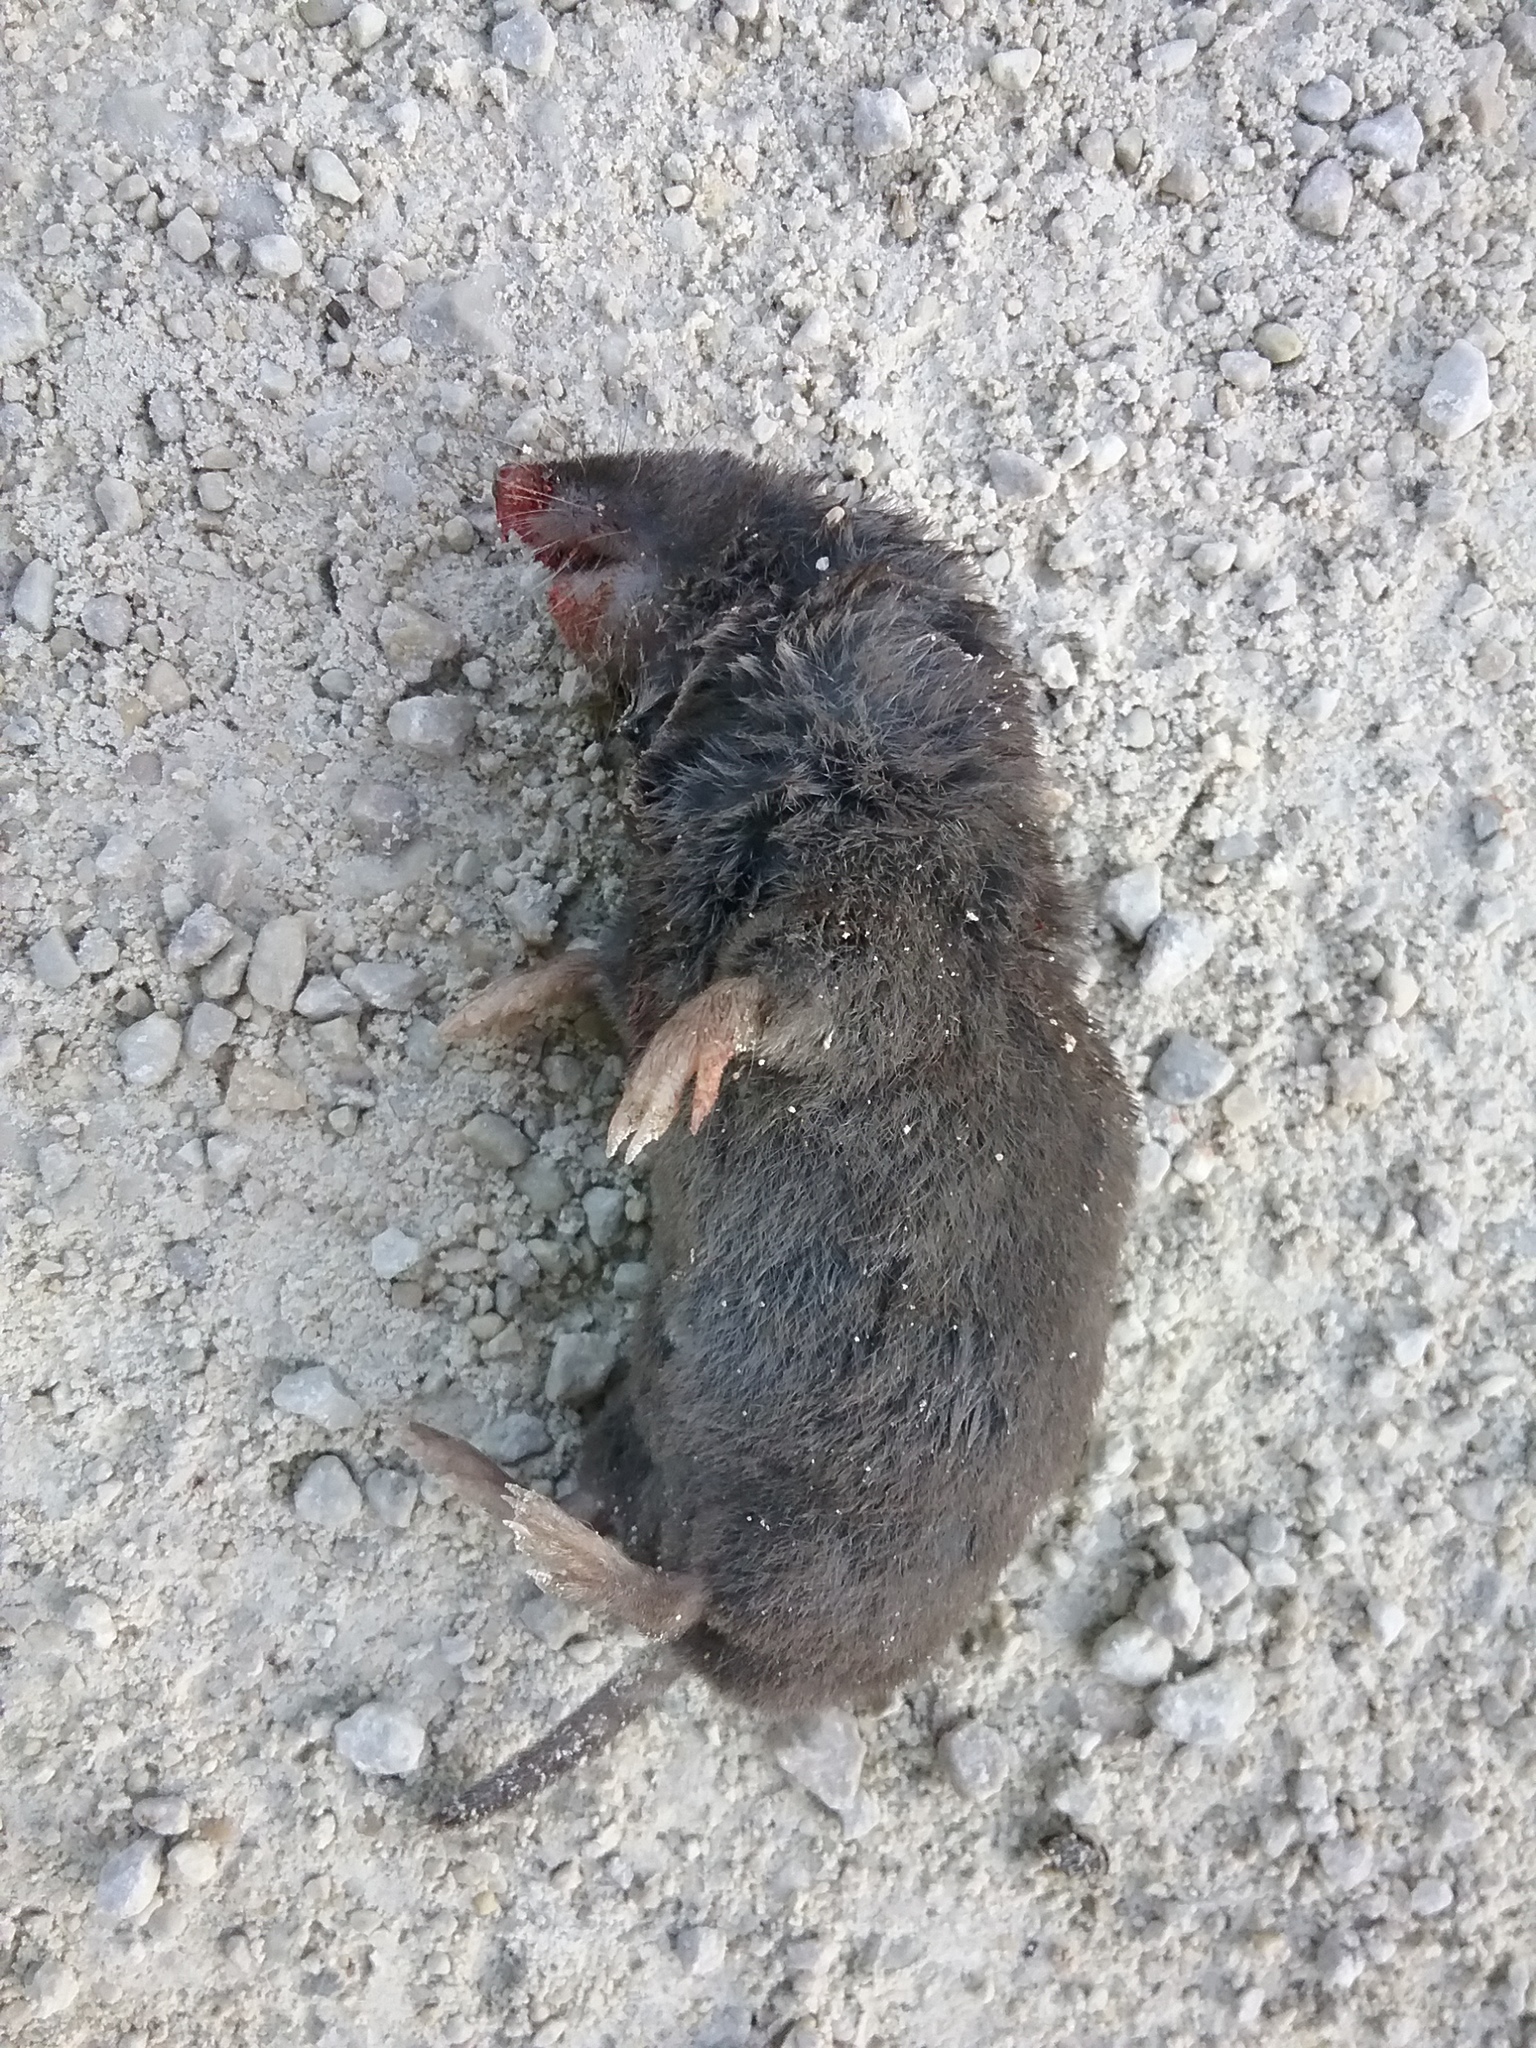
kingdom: Animalia
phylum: Chordata
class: Mammalia
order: Soricomorpha
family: Soricidae
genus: Blarina
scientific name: Blarina brevicauda
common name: Northern short-tailed shrew
